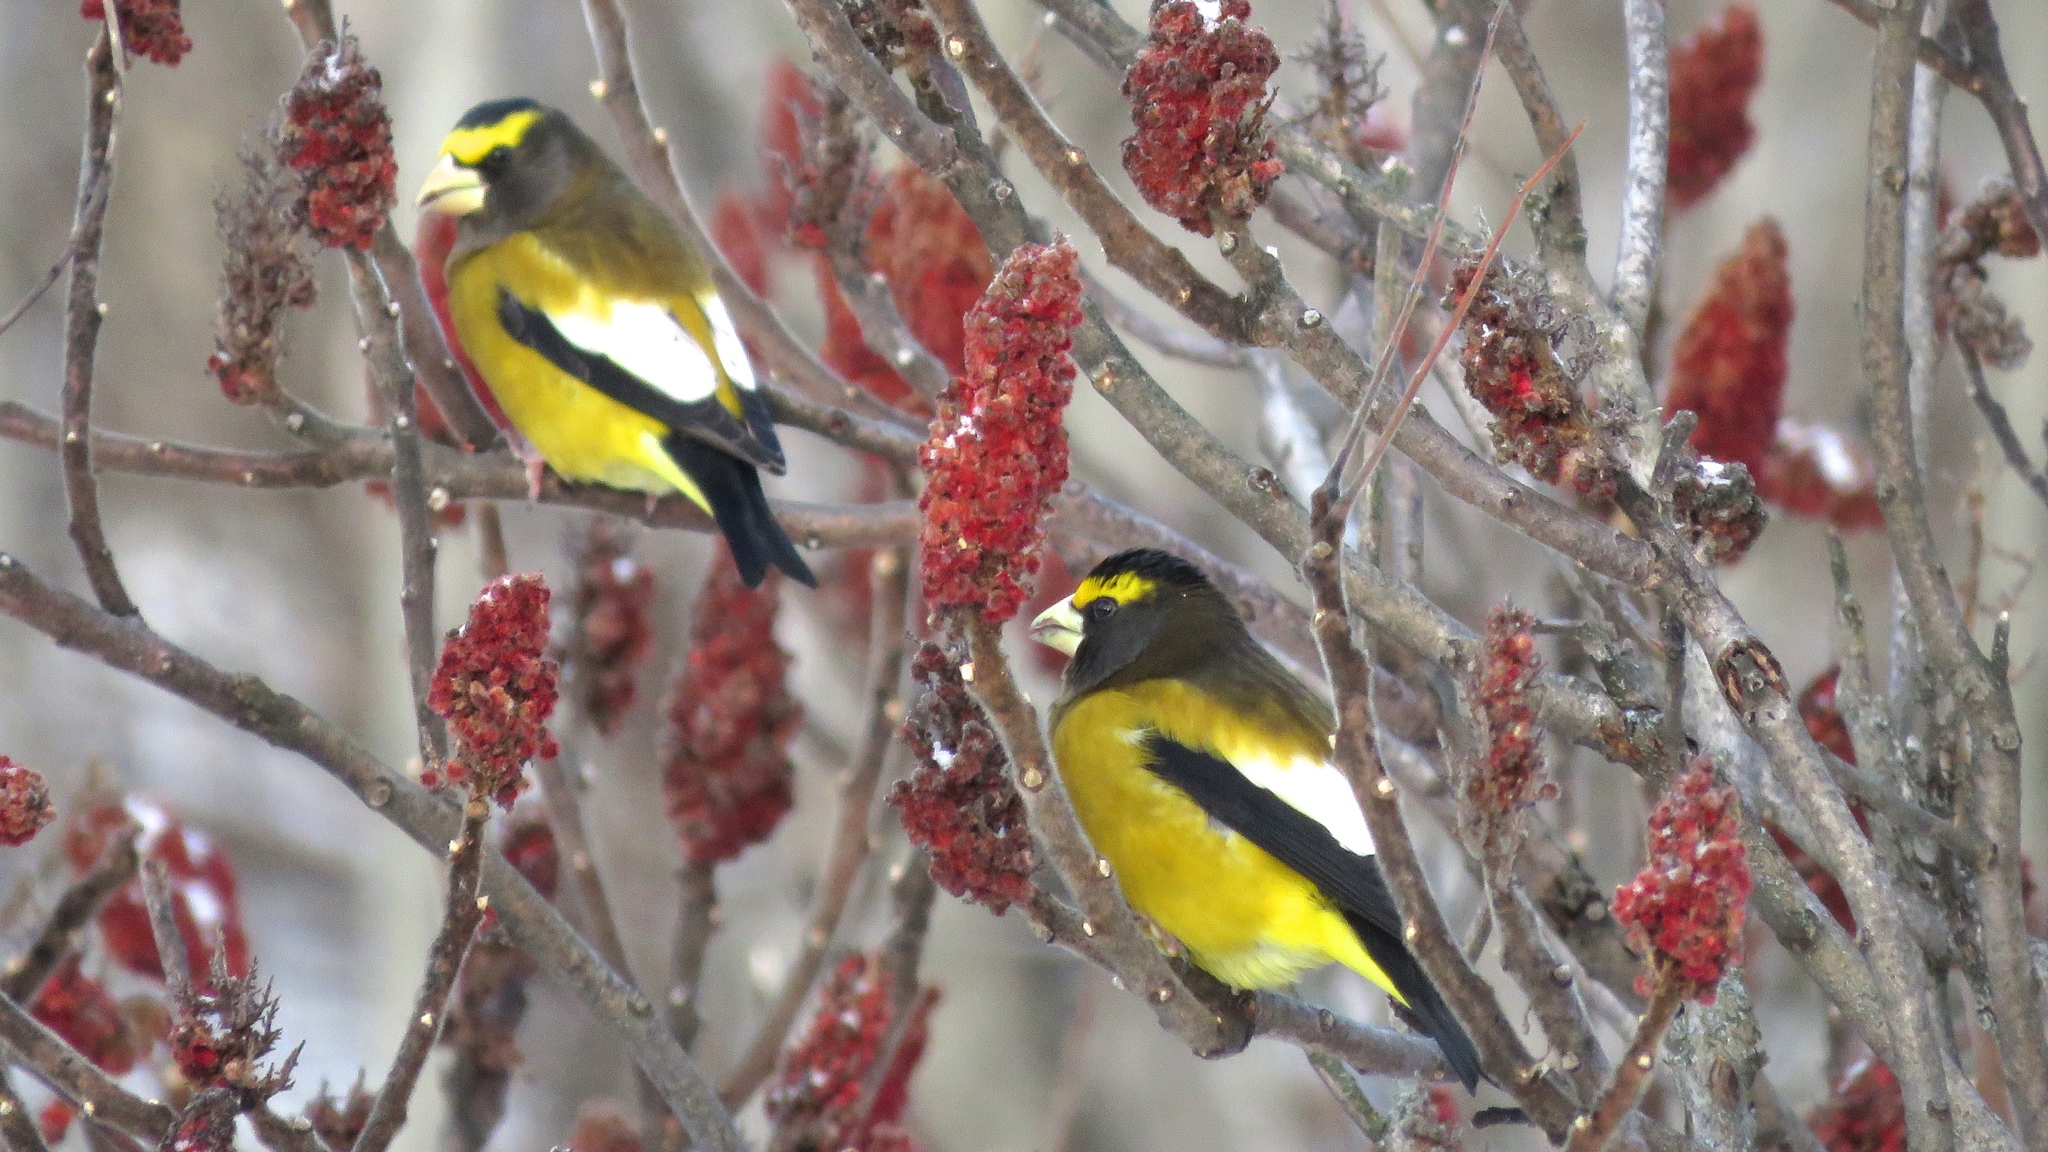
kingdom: Animalia
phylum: Chordata
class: Aves
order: Passeriformes
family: Fringillidae
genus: Hesperiphona
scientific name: Hesperiphona vespertina
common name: Evening grosbeak
